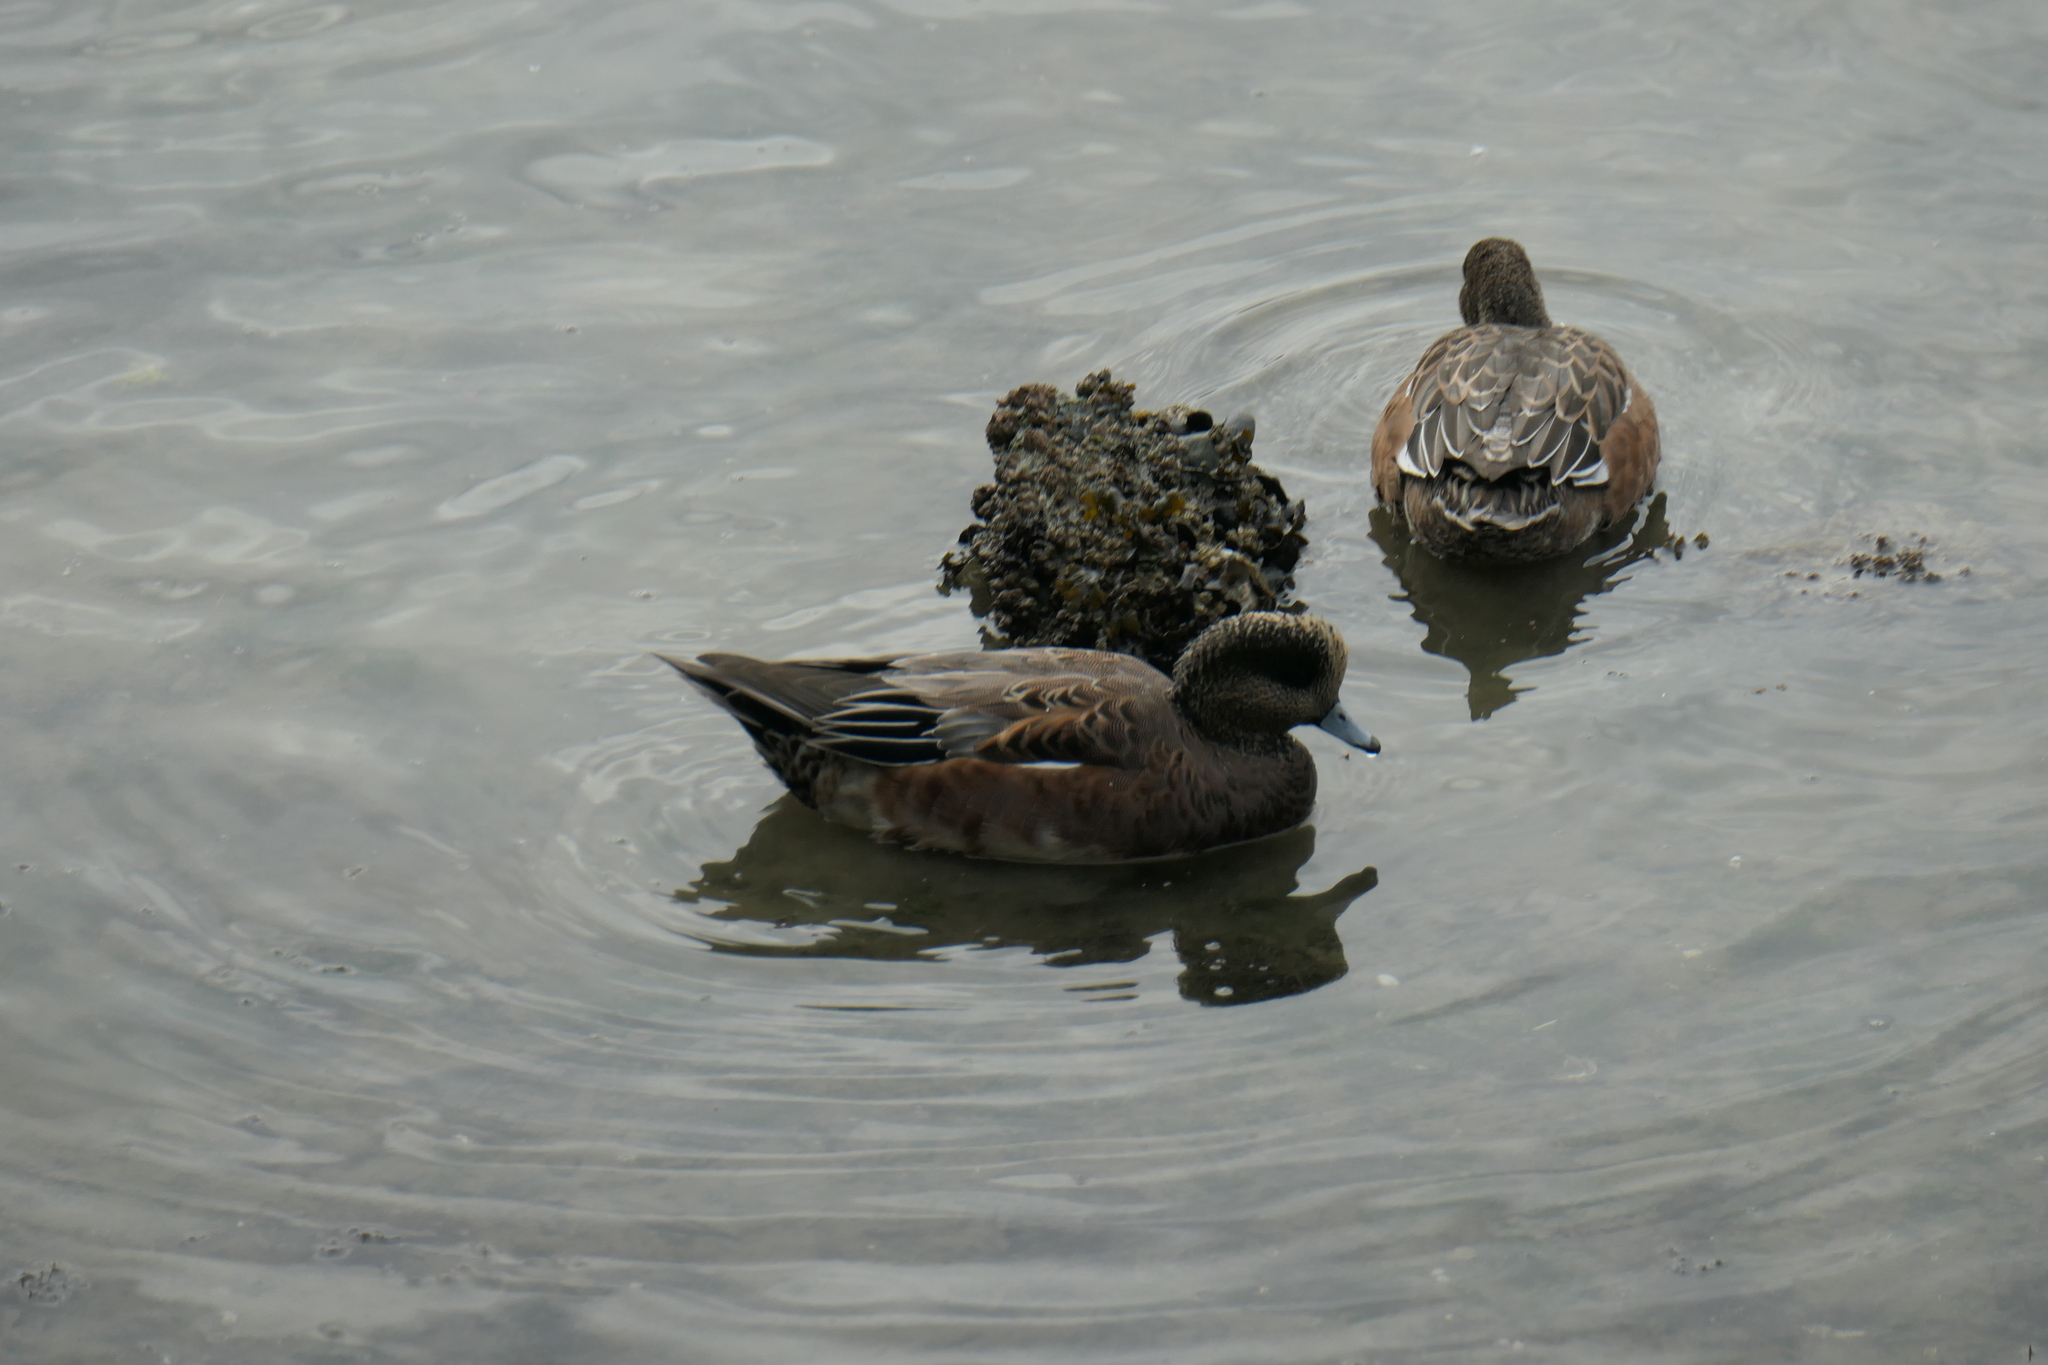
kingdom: Animalia
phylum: Chordata
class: Aves
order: Anseriformes
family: Anatidae
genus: Mareca
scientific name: Mareca americana
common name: American wigeon
